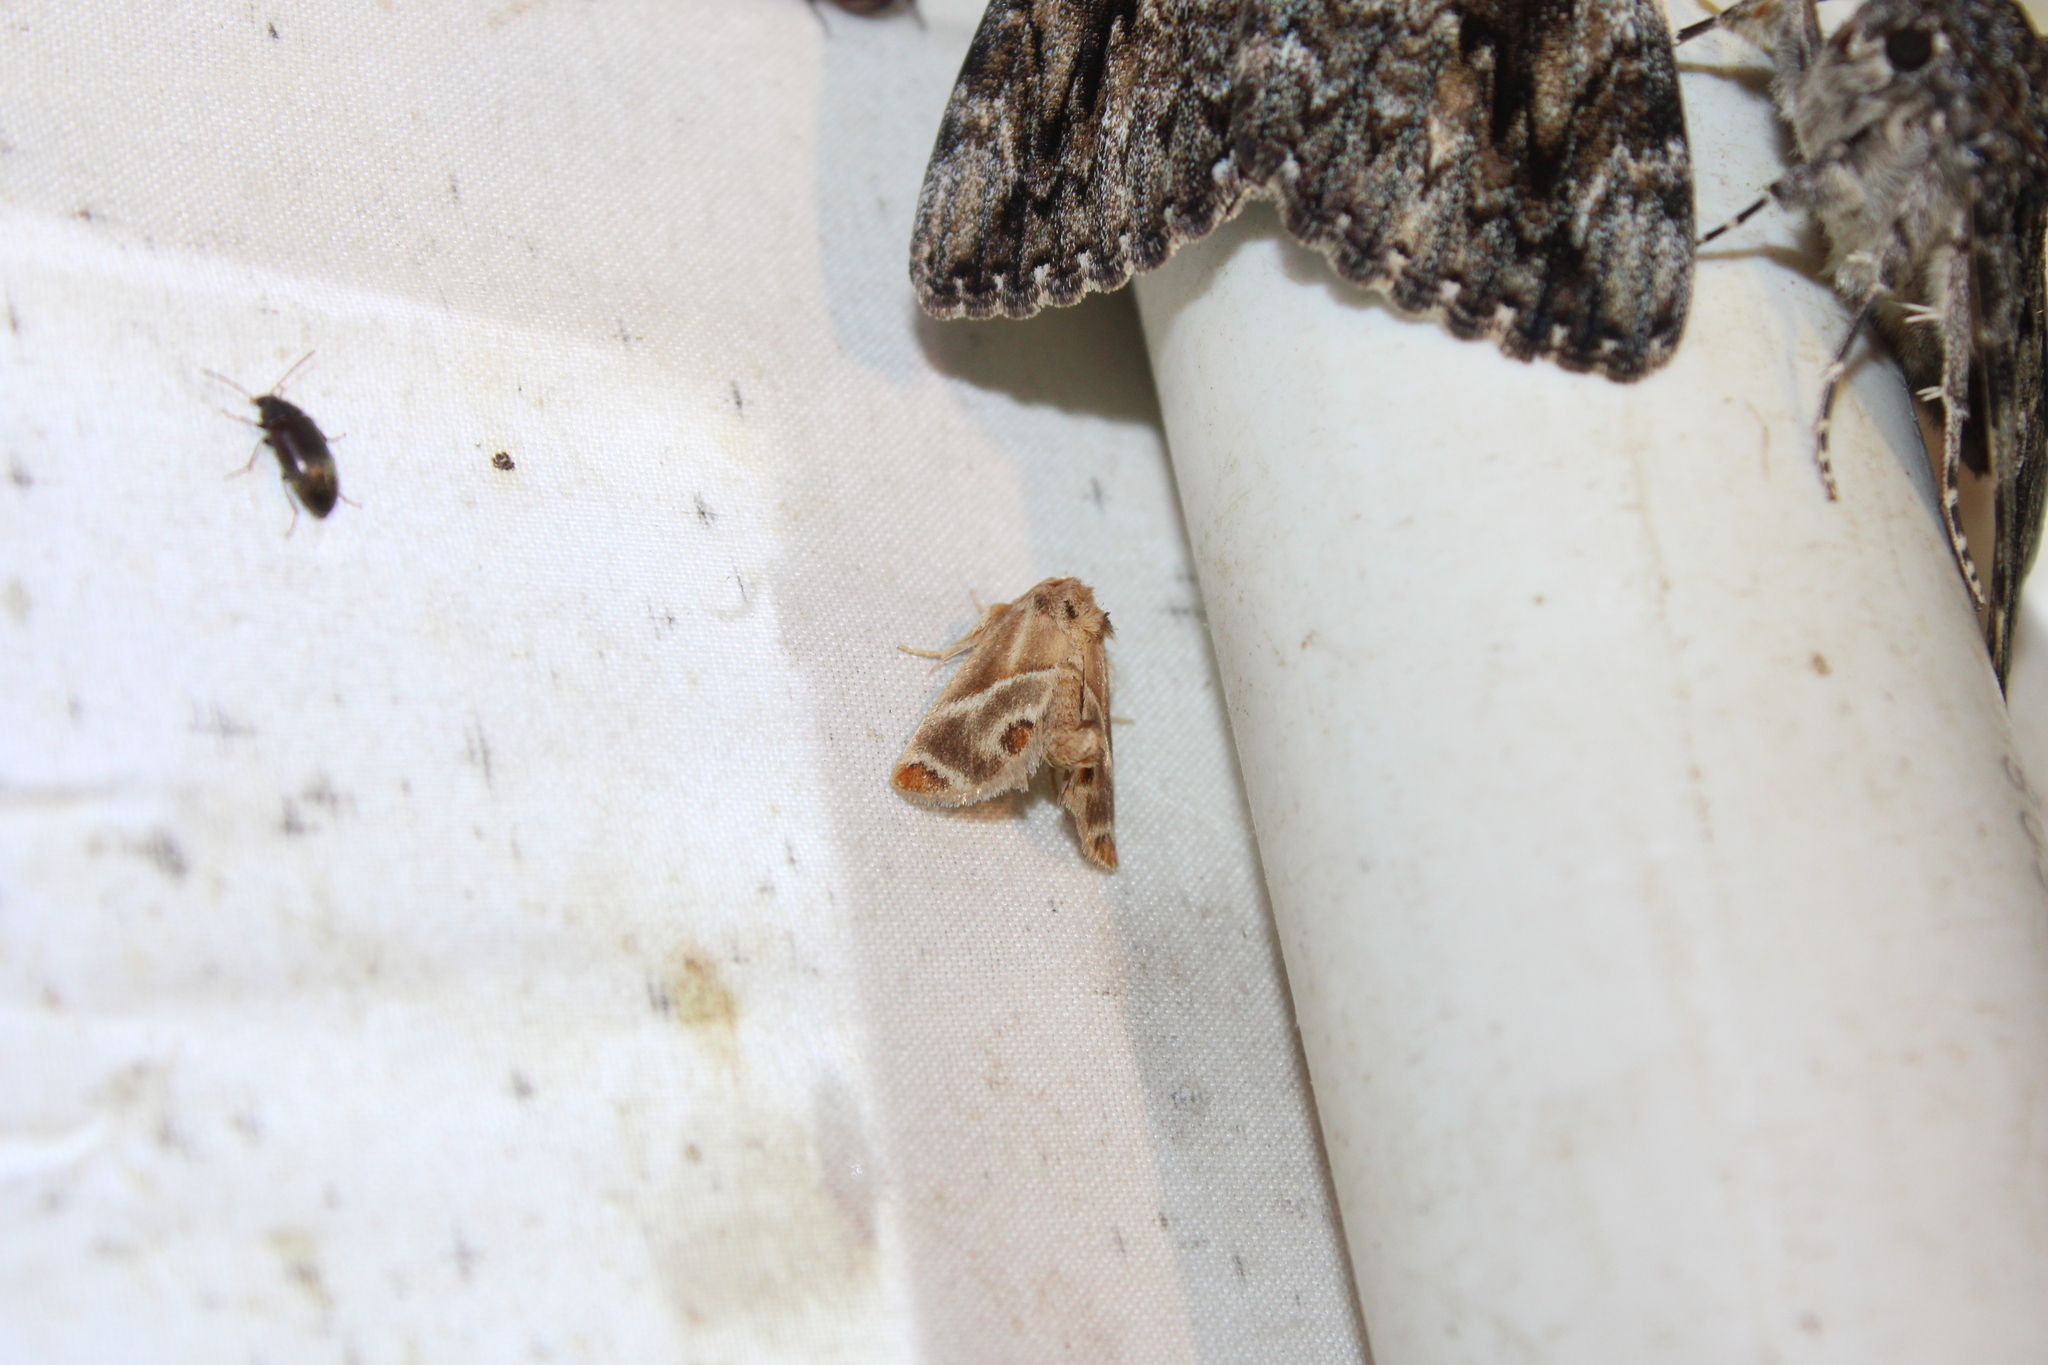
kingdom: Animalia
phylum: Arthropoda
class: Insecta
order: Lepidoptera
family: Limacodidae
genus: Apoda
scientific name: Apoda biguttata
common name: Shagreened slug moth
